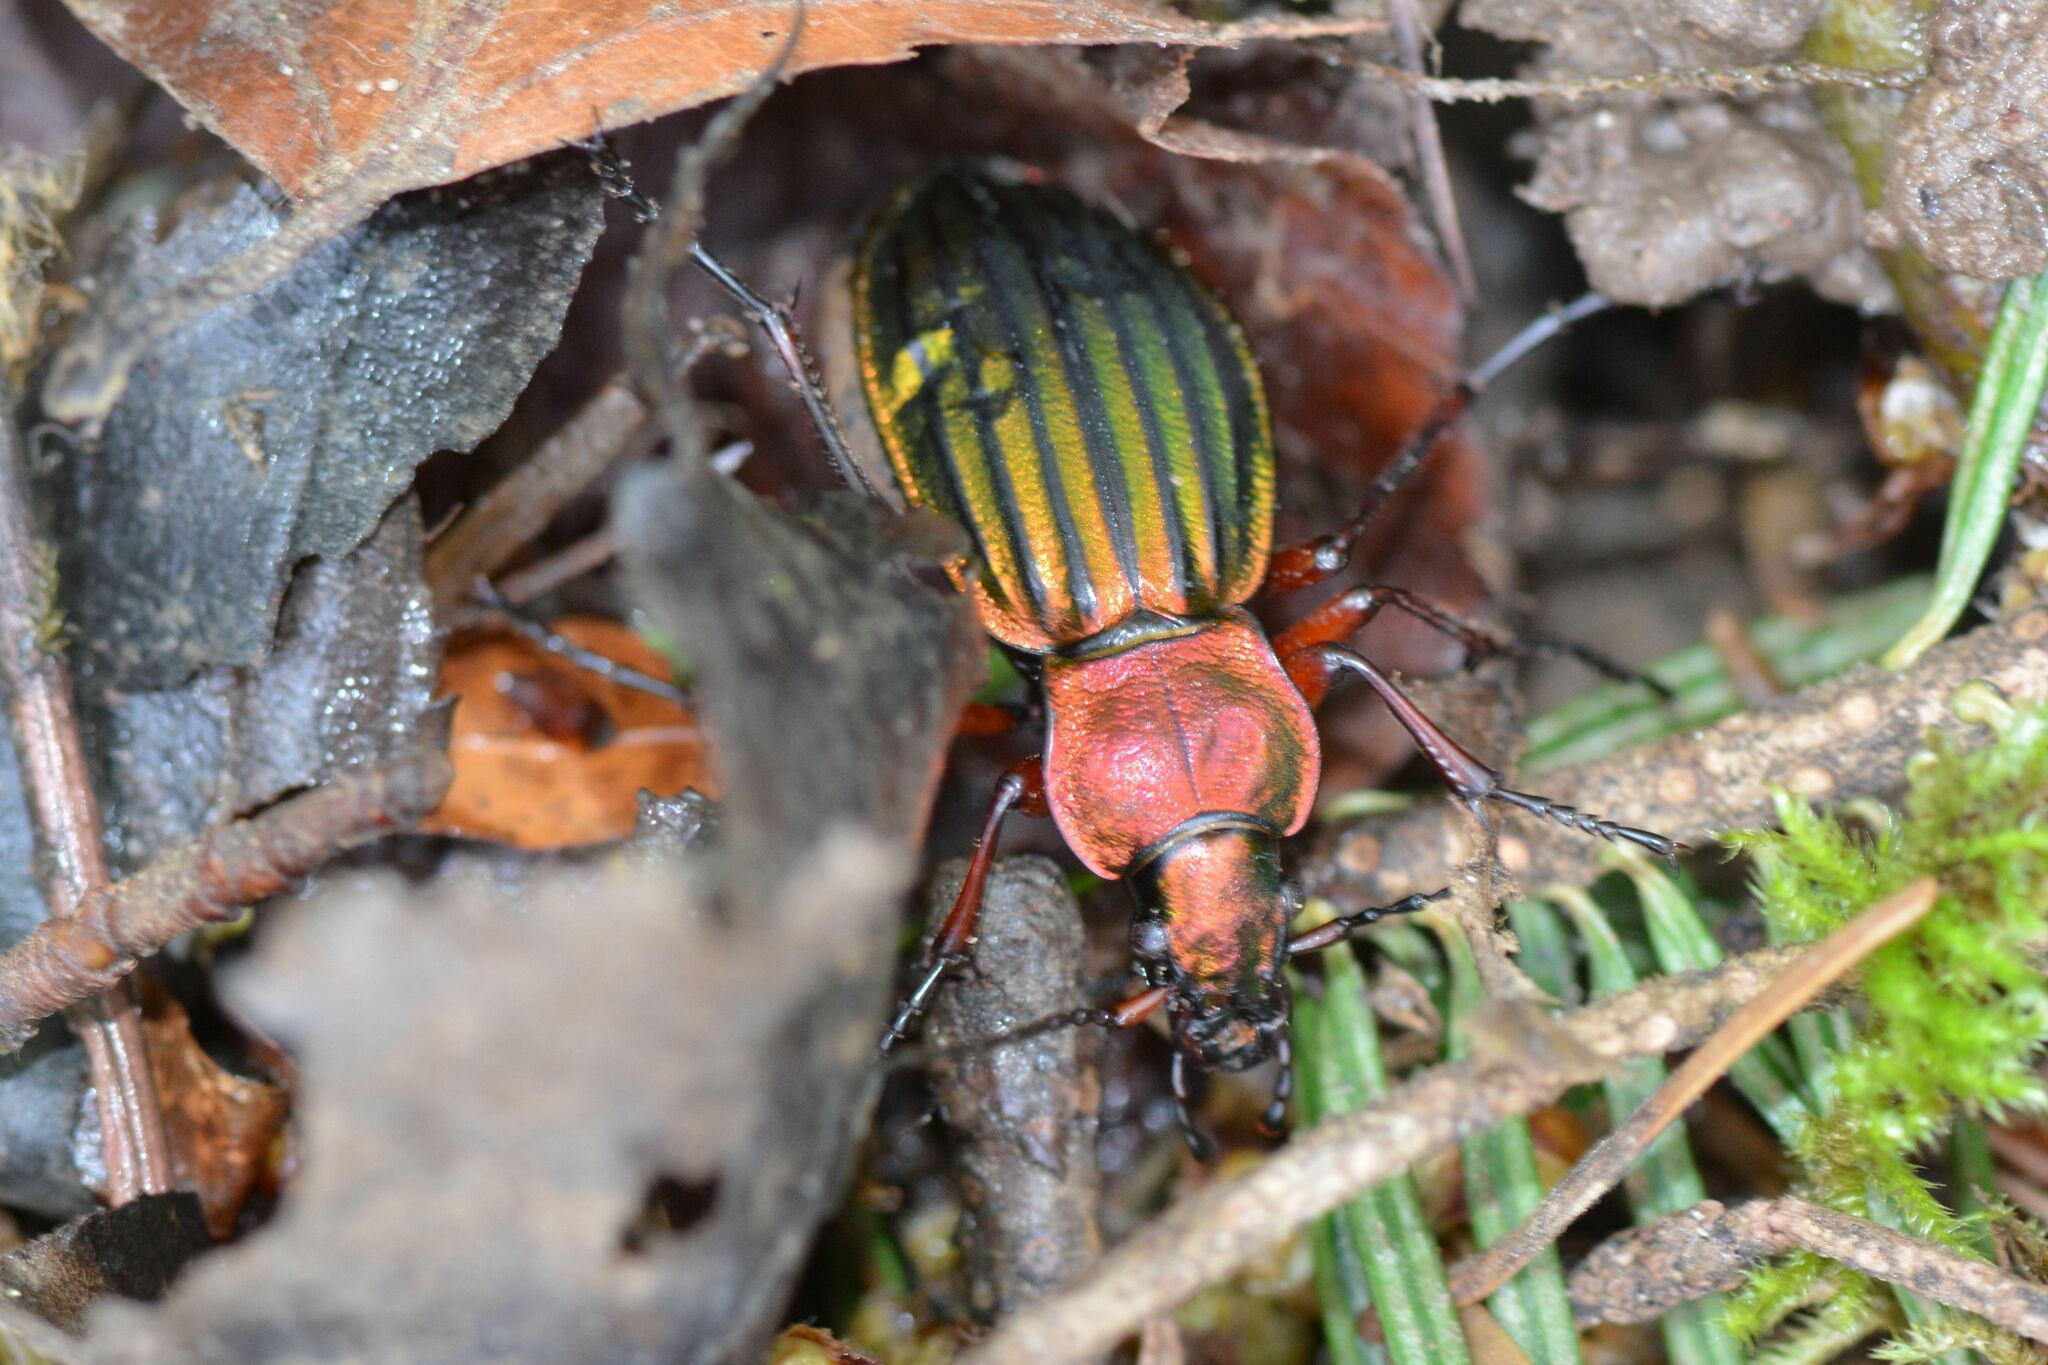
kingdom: Animalia
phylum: Arthropoda
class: Insecta
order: Coleoptera
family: Carabidae
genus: Carabus
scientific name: Carabus auronitens
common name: Carabus auronitens
